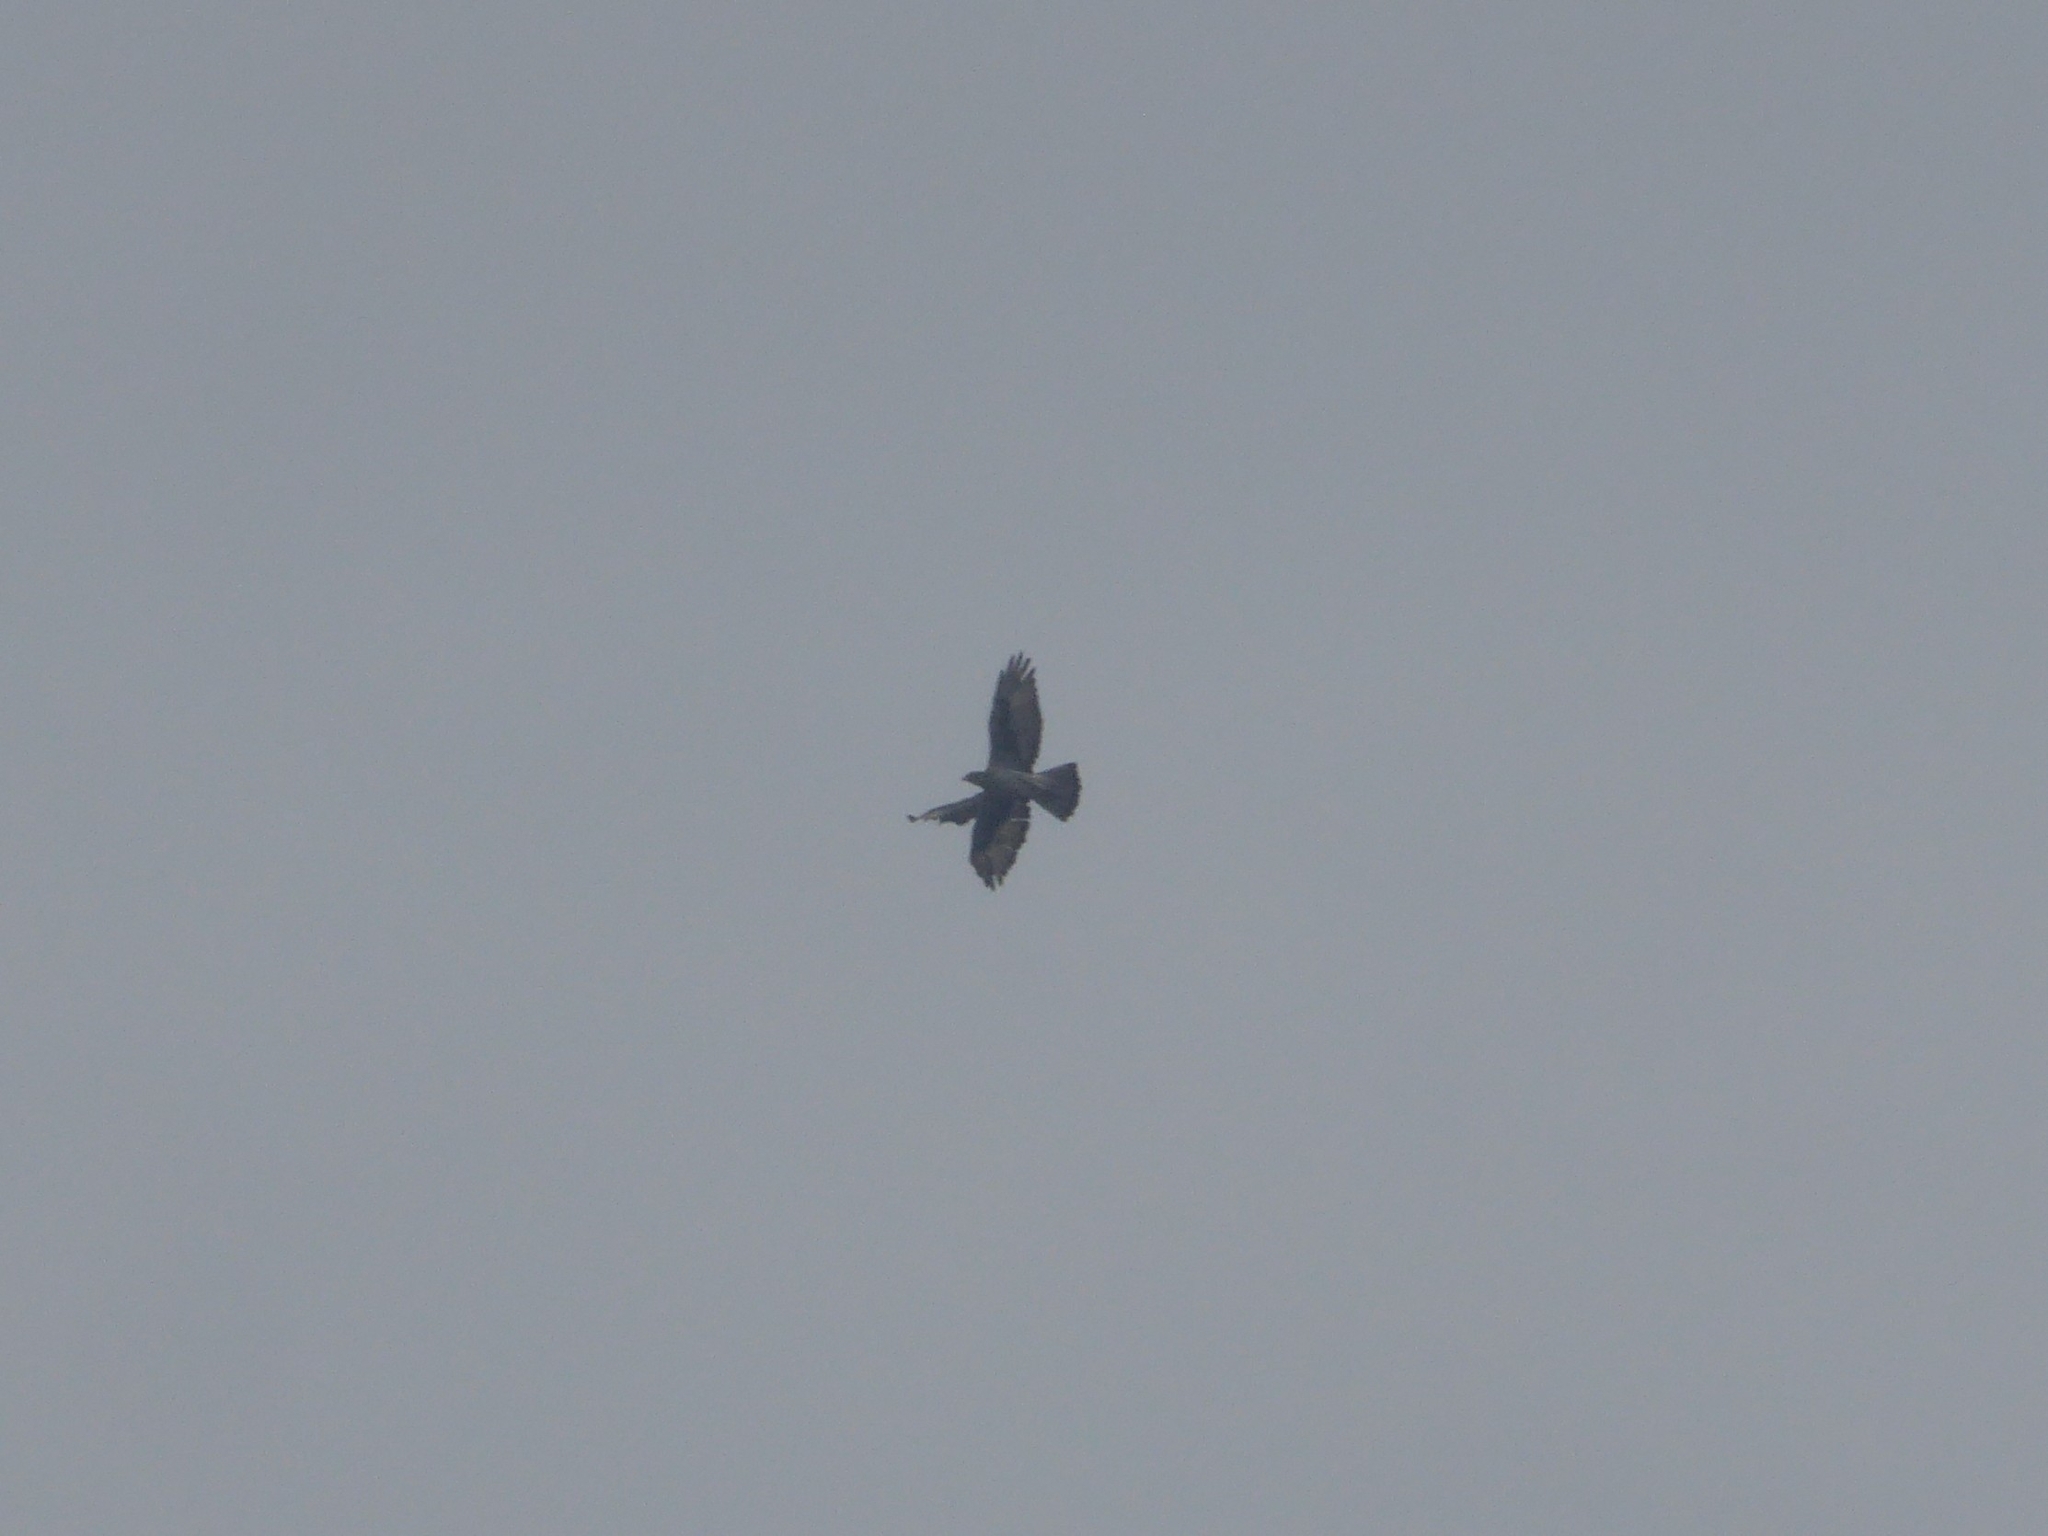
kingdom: Animalia
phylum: Chordata
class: Aves
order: Accipitriformes
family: Accipitridae
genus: Aquila
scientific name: Aquila spilogaster
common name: African hawk-eagle
